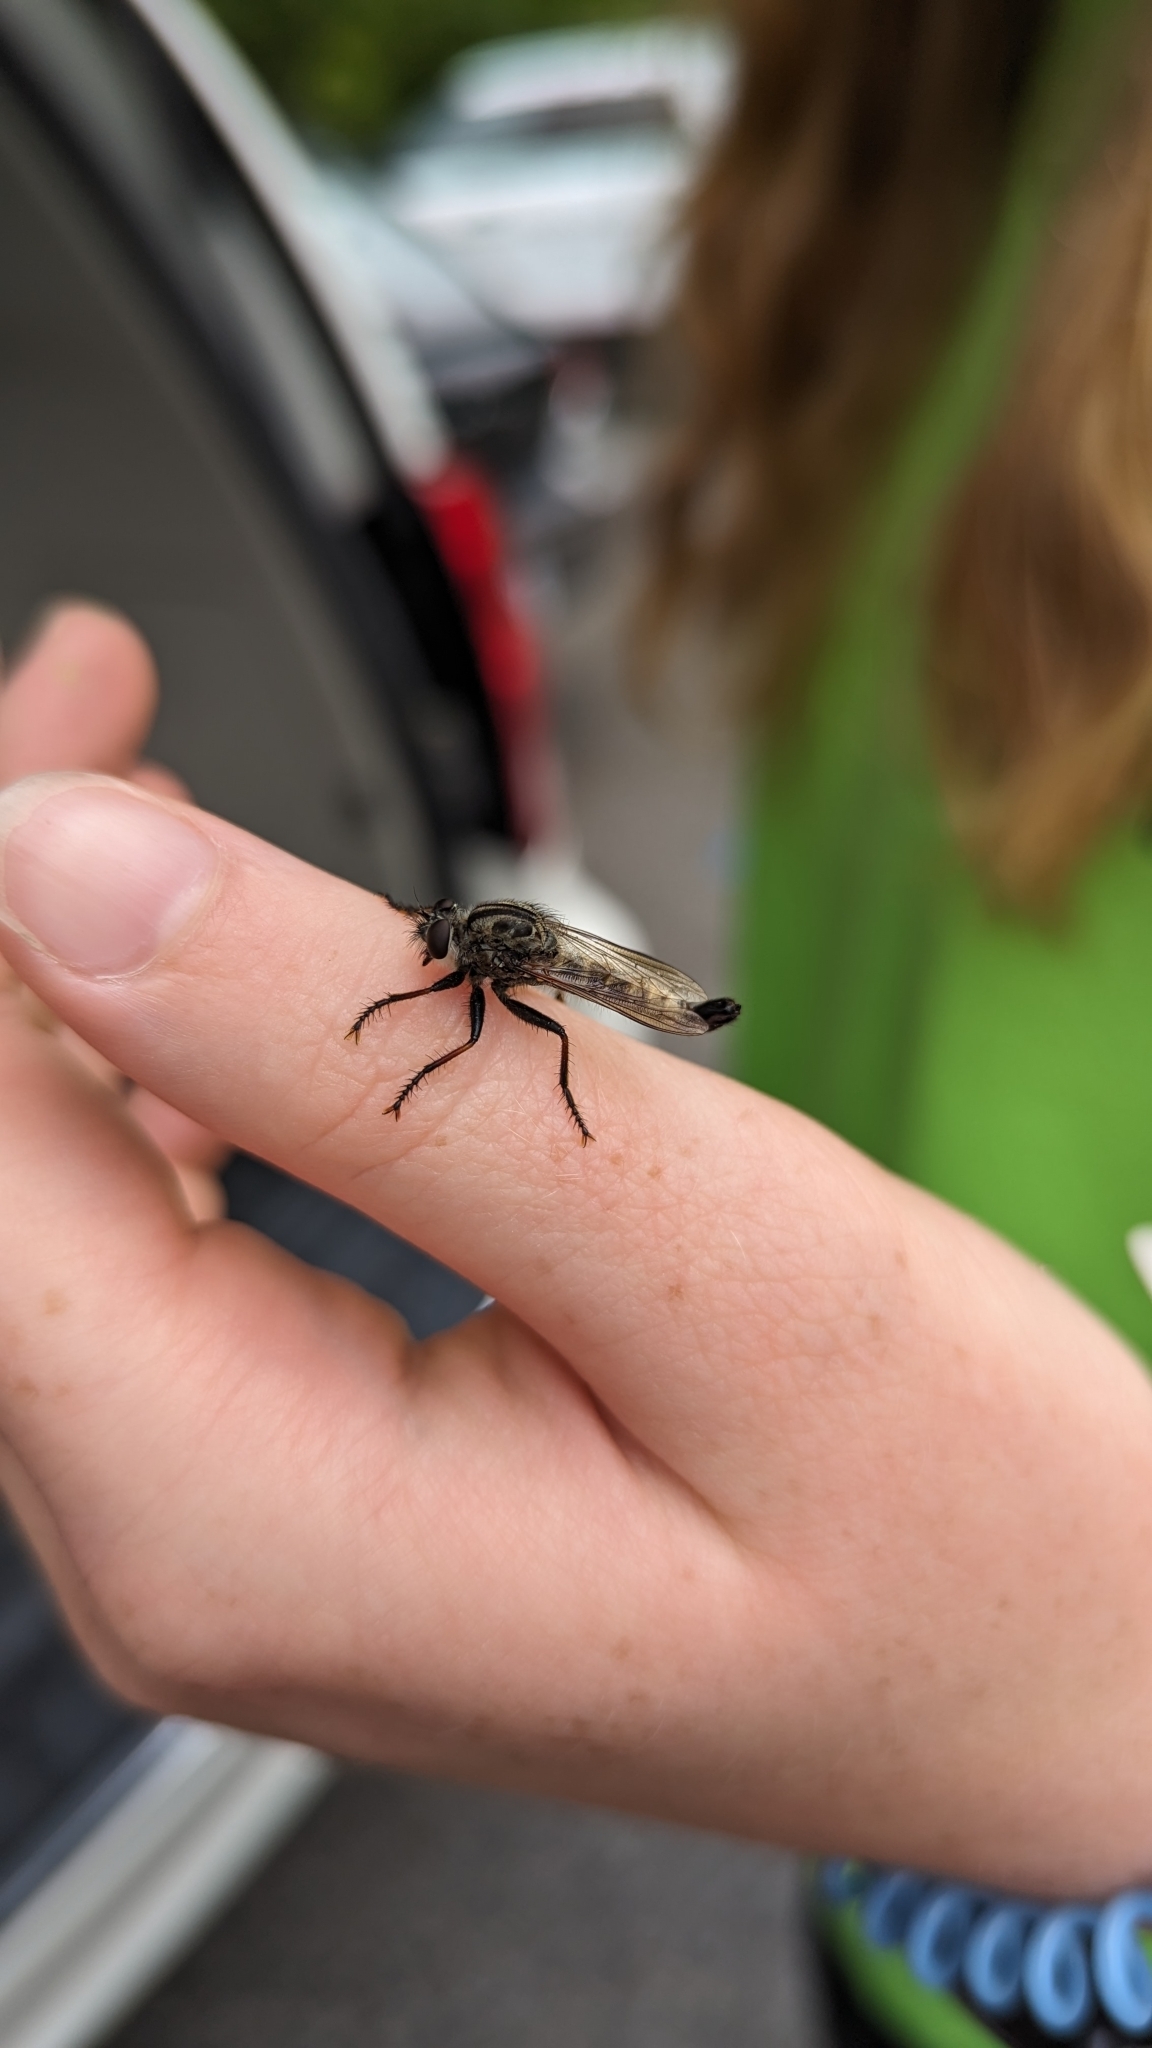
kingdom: Animalia
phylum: Arthropoda
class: Insecta
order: Diptera
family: Asilidae
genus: Efferia
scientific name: Efferia aestuans
